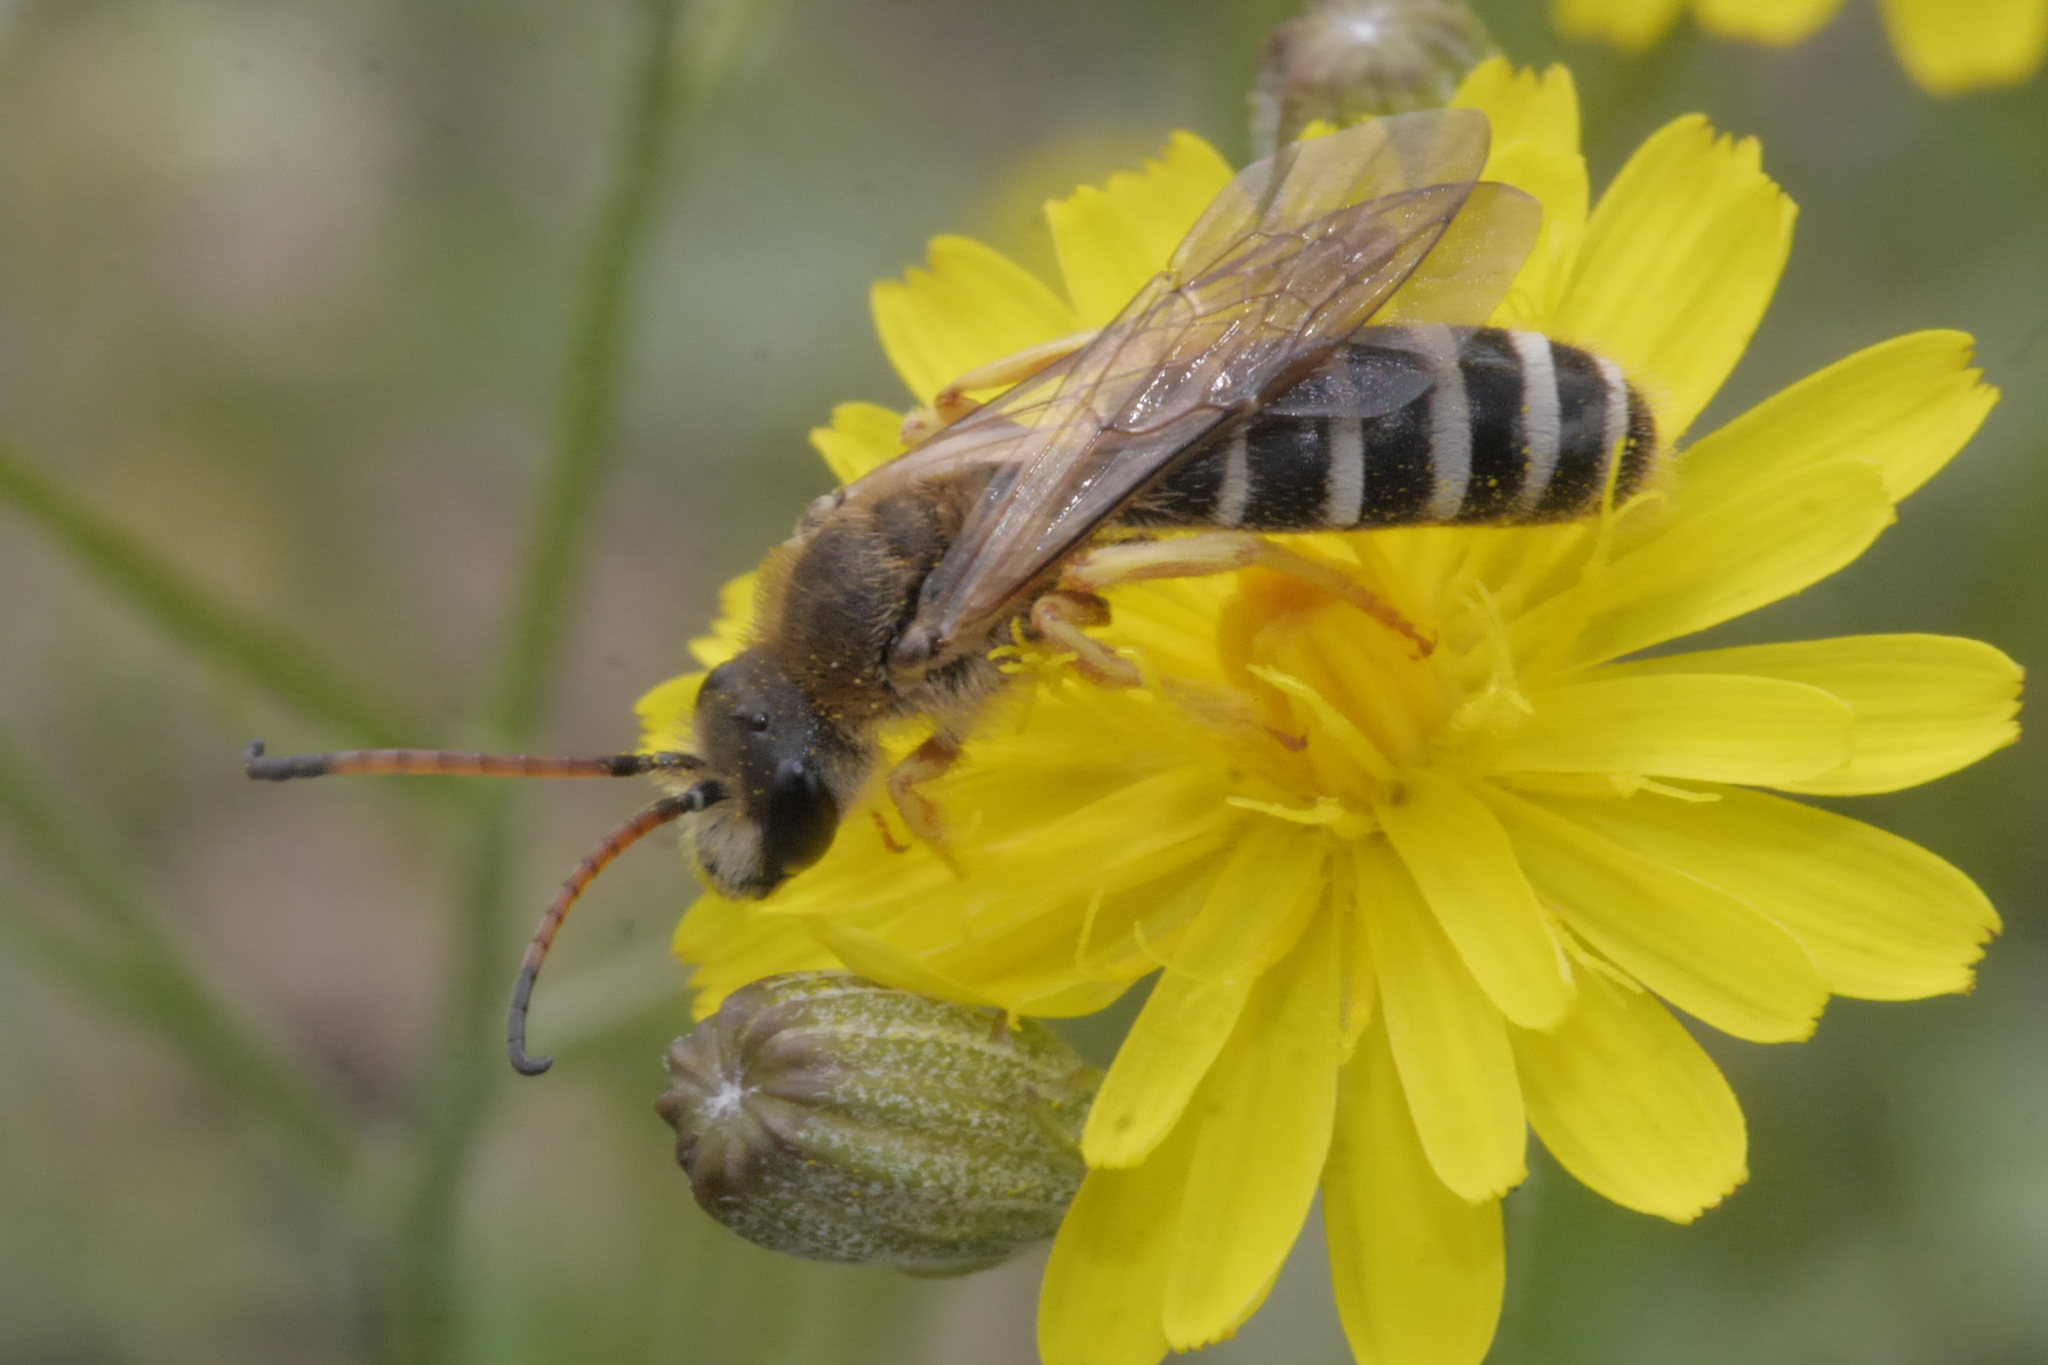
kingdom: Animalia
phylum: Arthropoda
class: Insecta
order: Hymenoptera
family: Halictidae
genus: Halictus
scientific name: Halictus sexcinctus
